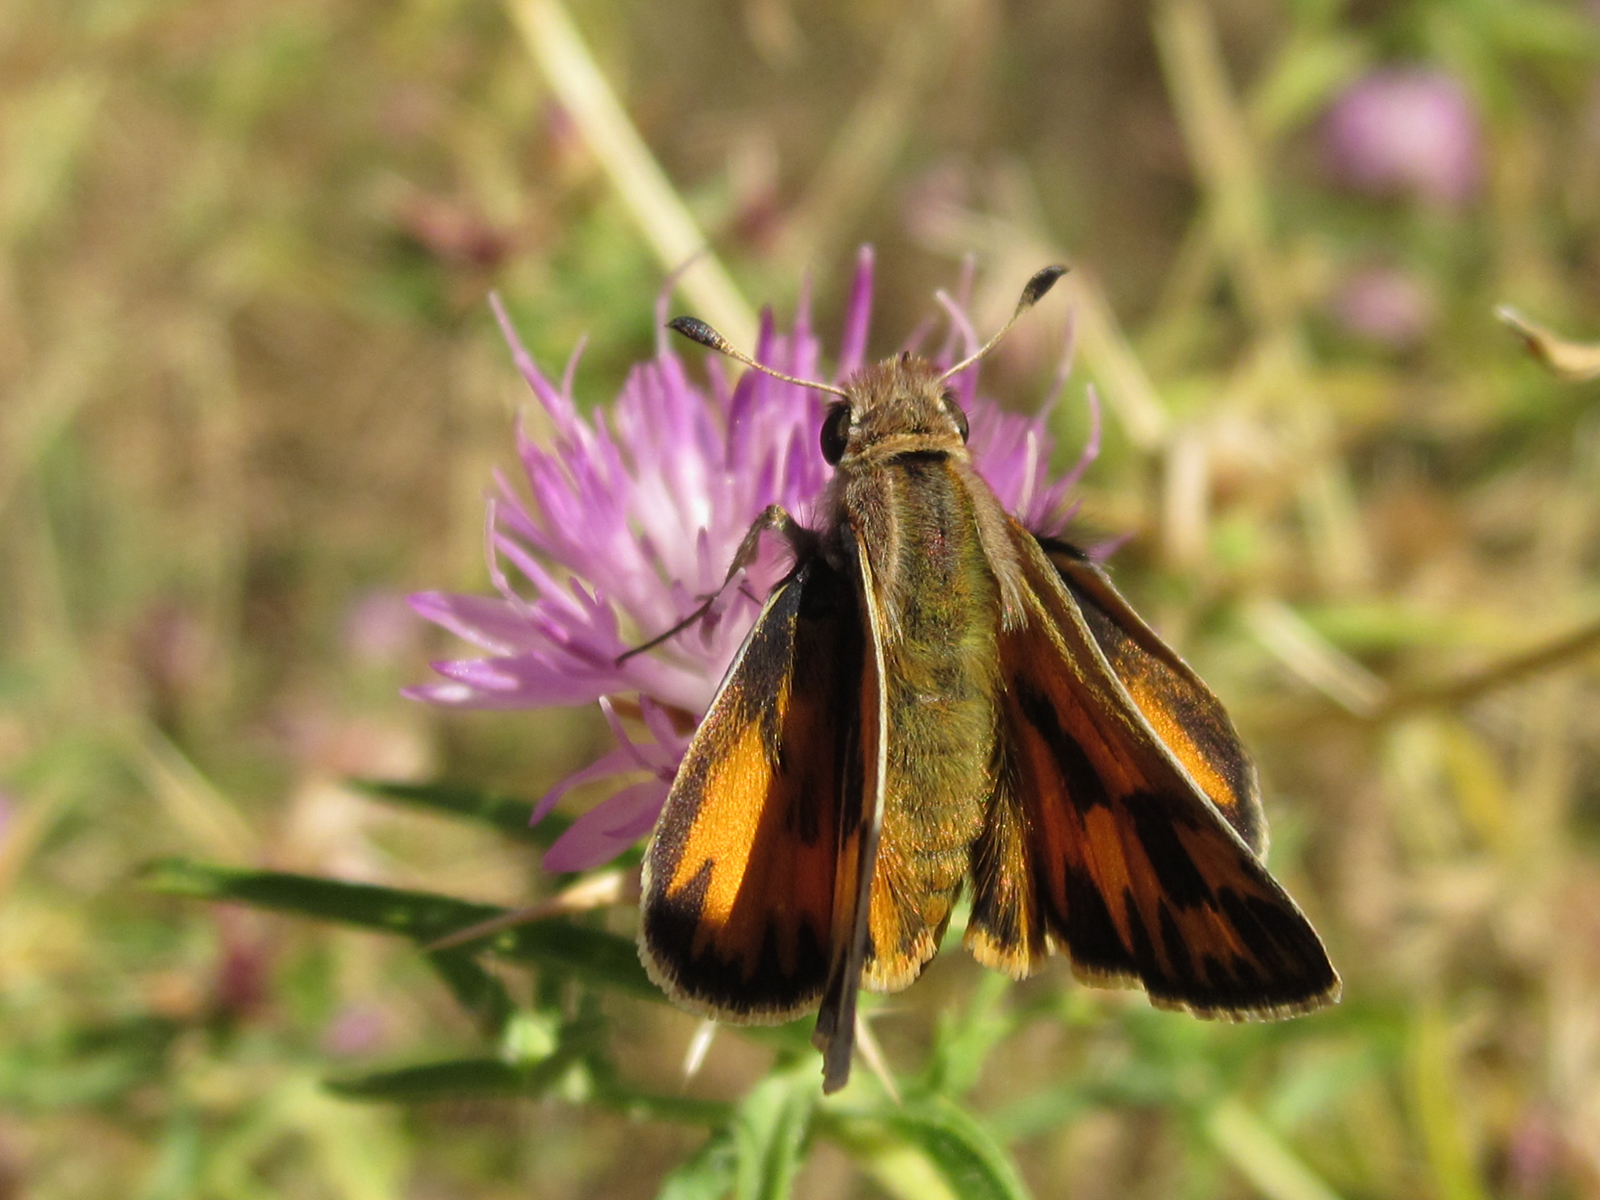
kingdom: Animalia
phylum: Arthropoda
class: Insecta
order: Lepidoptera
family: Hesperiidae
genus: Hylephila
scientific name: Hylephila fasciolata
